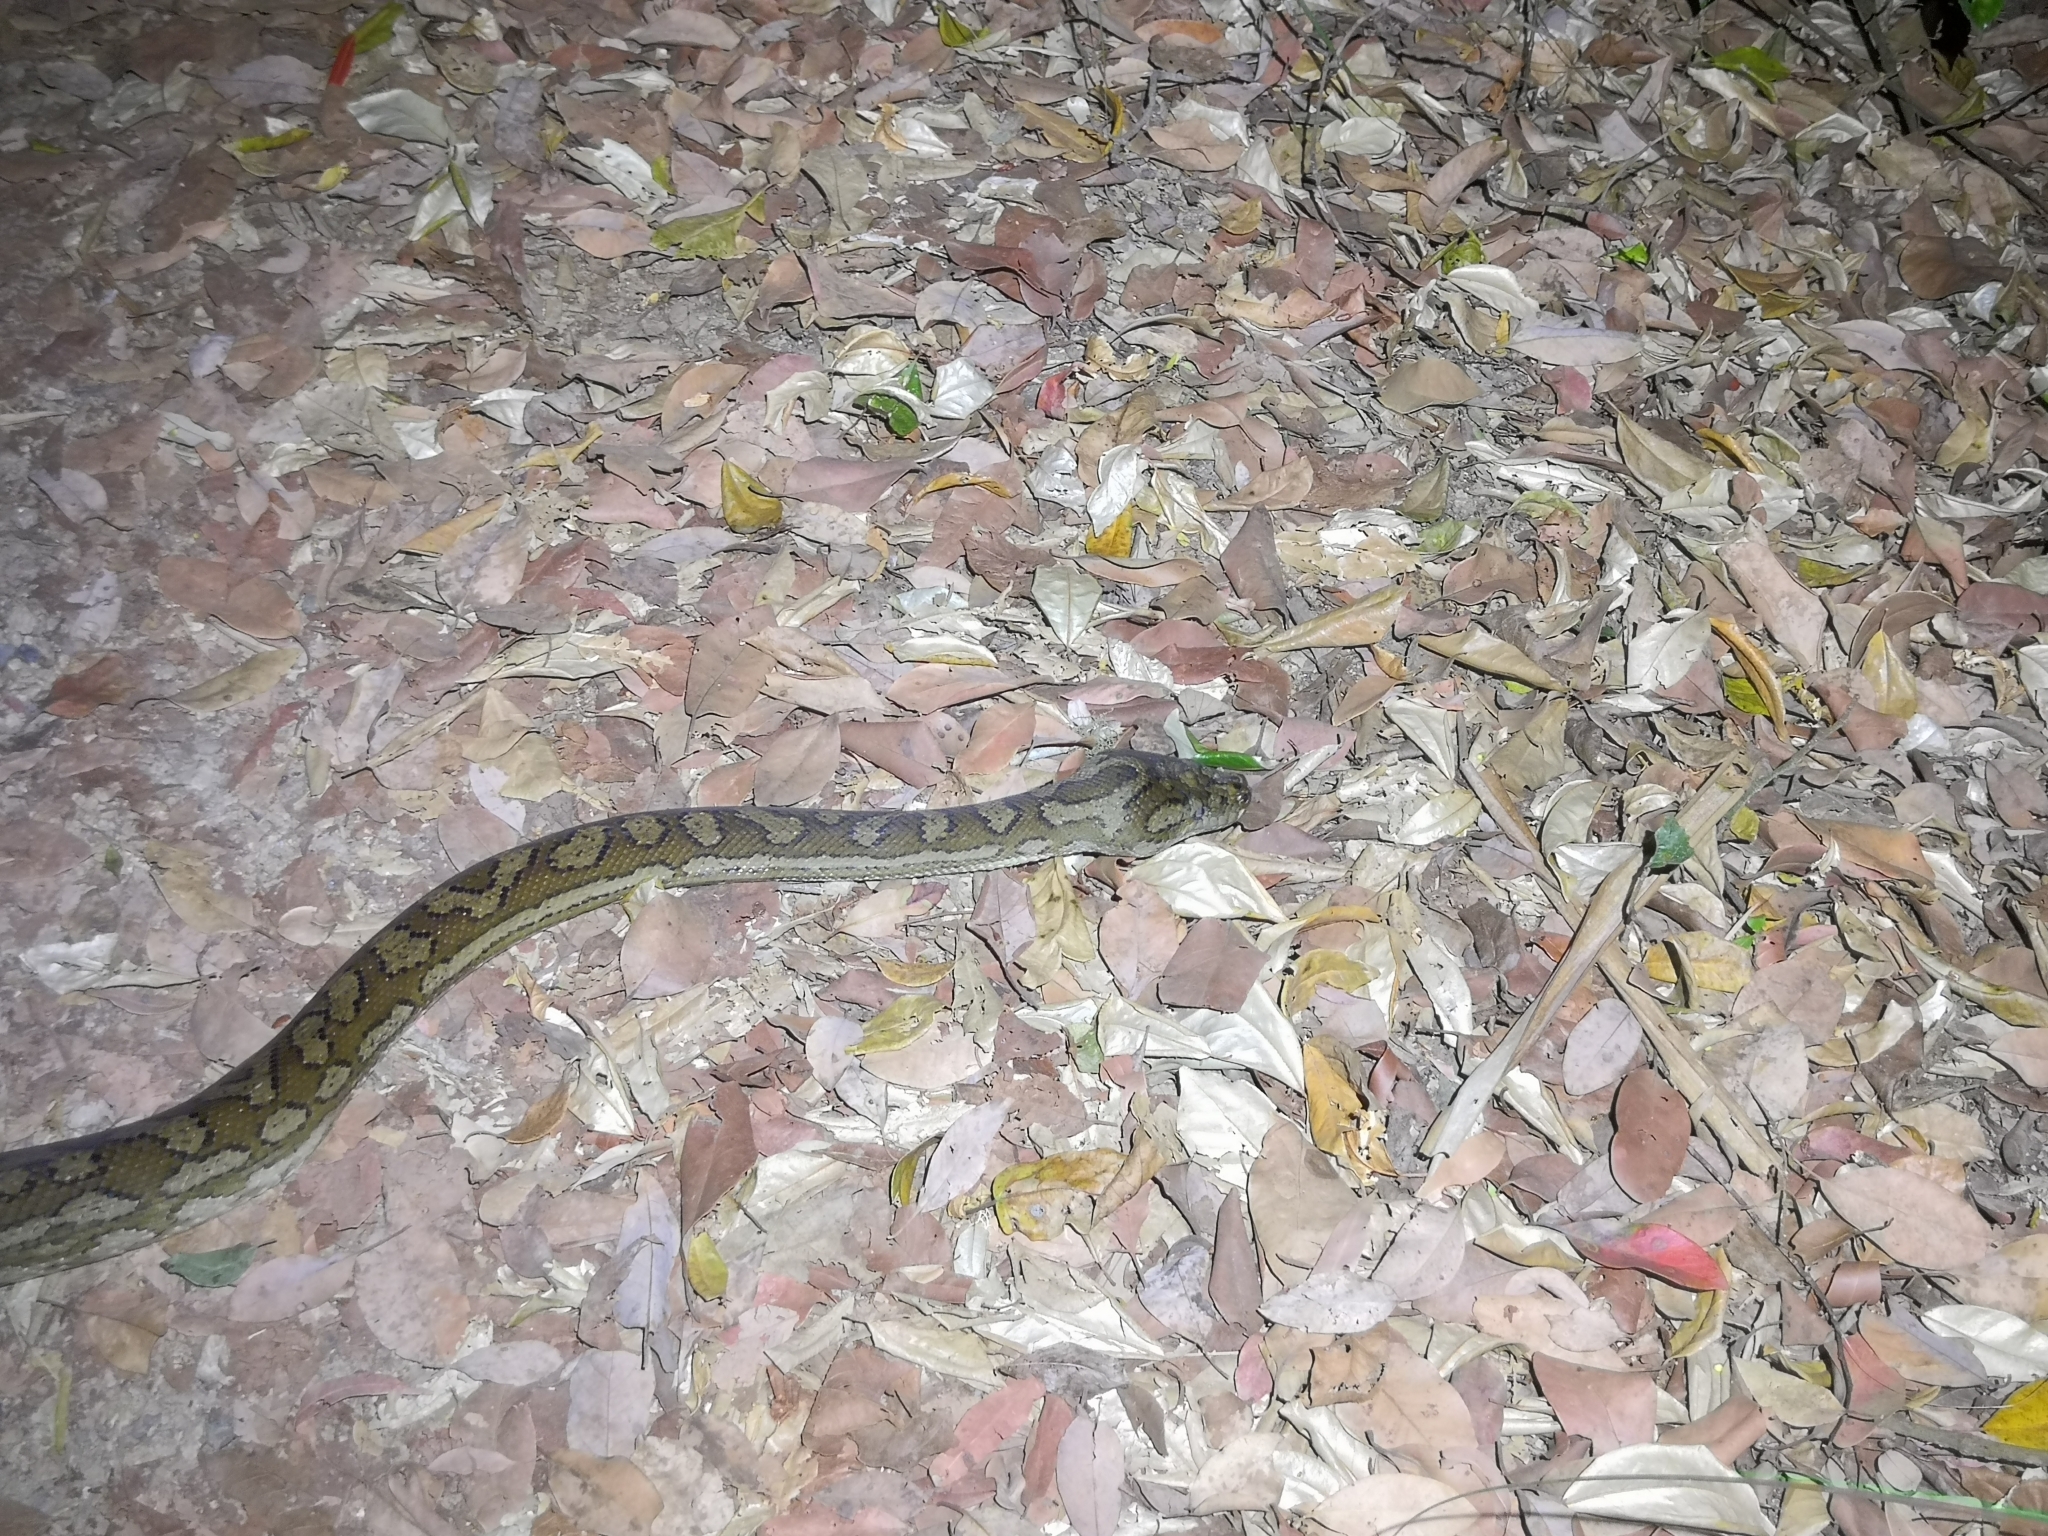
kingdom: Animalia
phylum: Chordata
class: Squamata
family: Pythonidae
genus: Morelia
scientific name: Morelia spilota
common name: Carpet python
